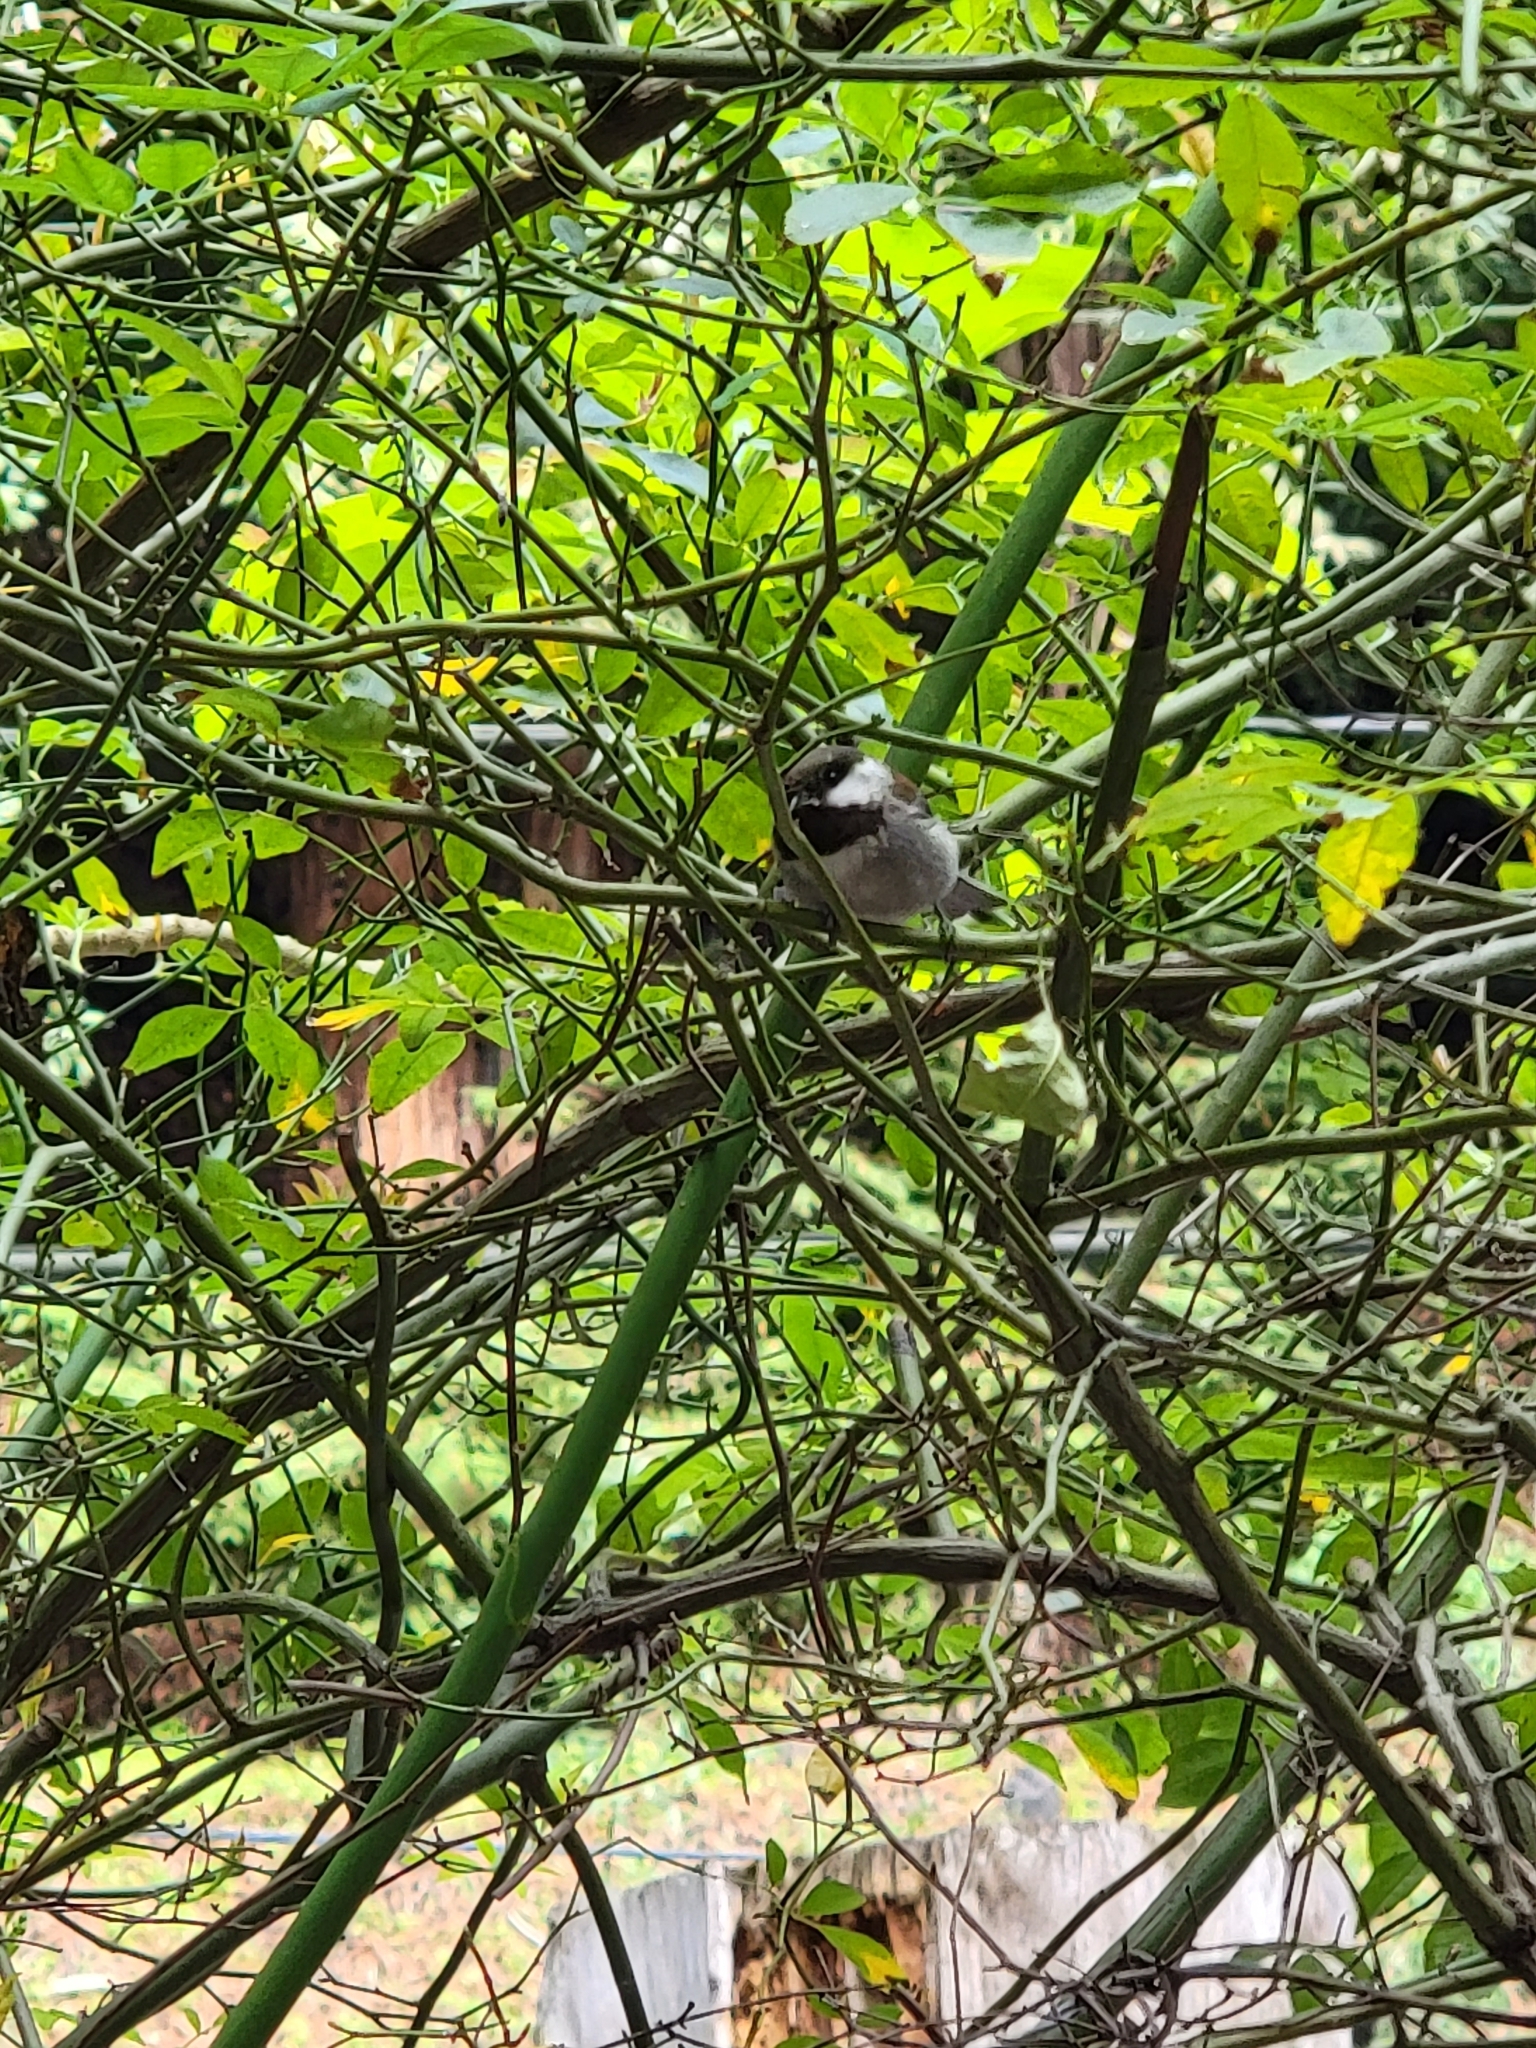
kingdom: Animalia
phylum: Chordata
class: Aves
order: Passeriformes
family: Paridae
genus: Poecile
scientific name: Poecile rufescens
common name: Chestnut-backed chickadee
